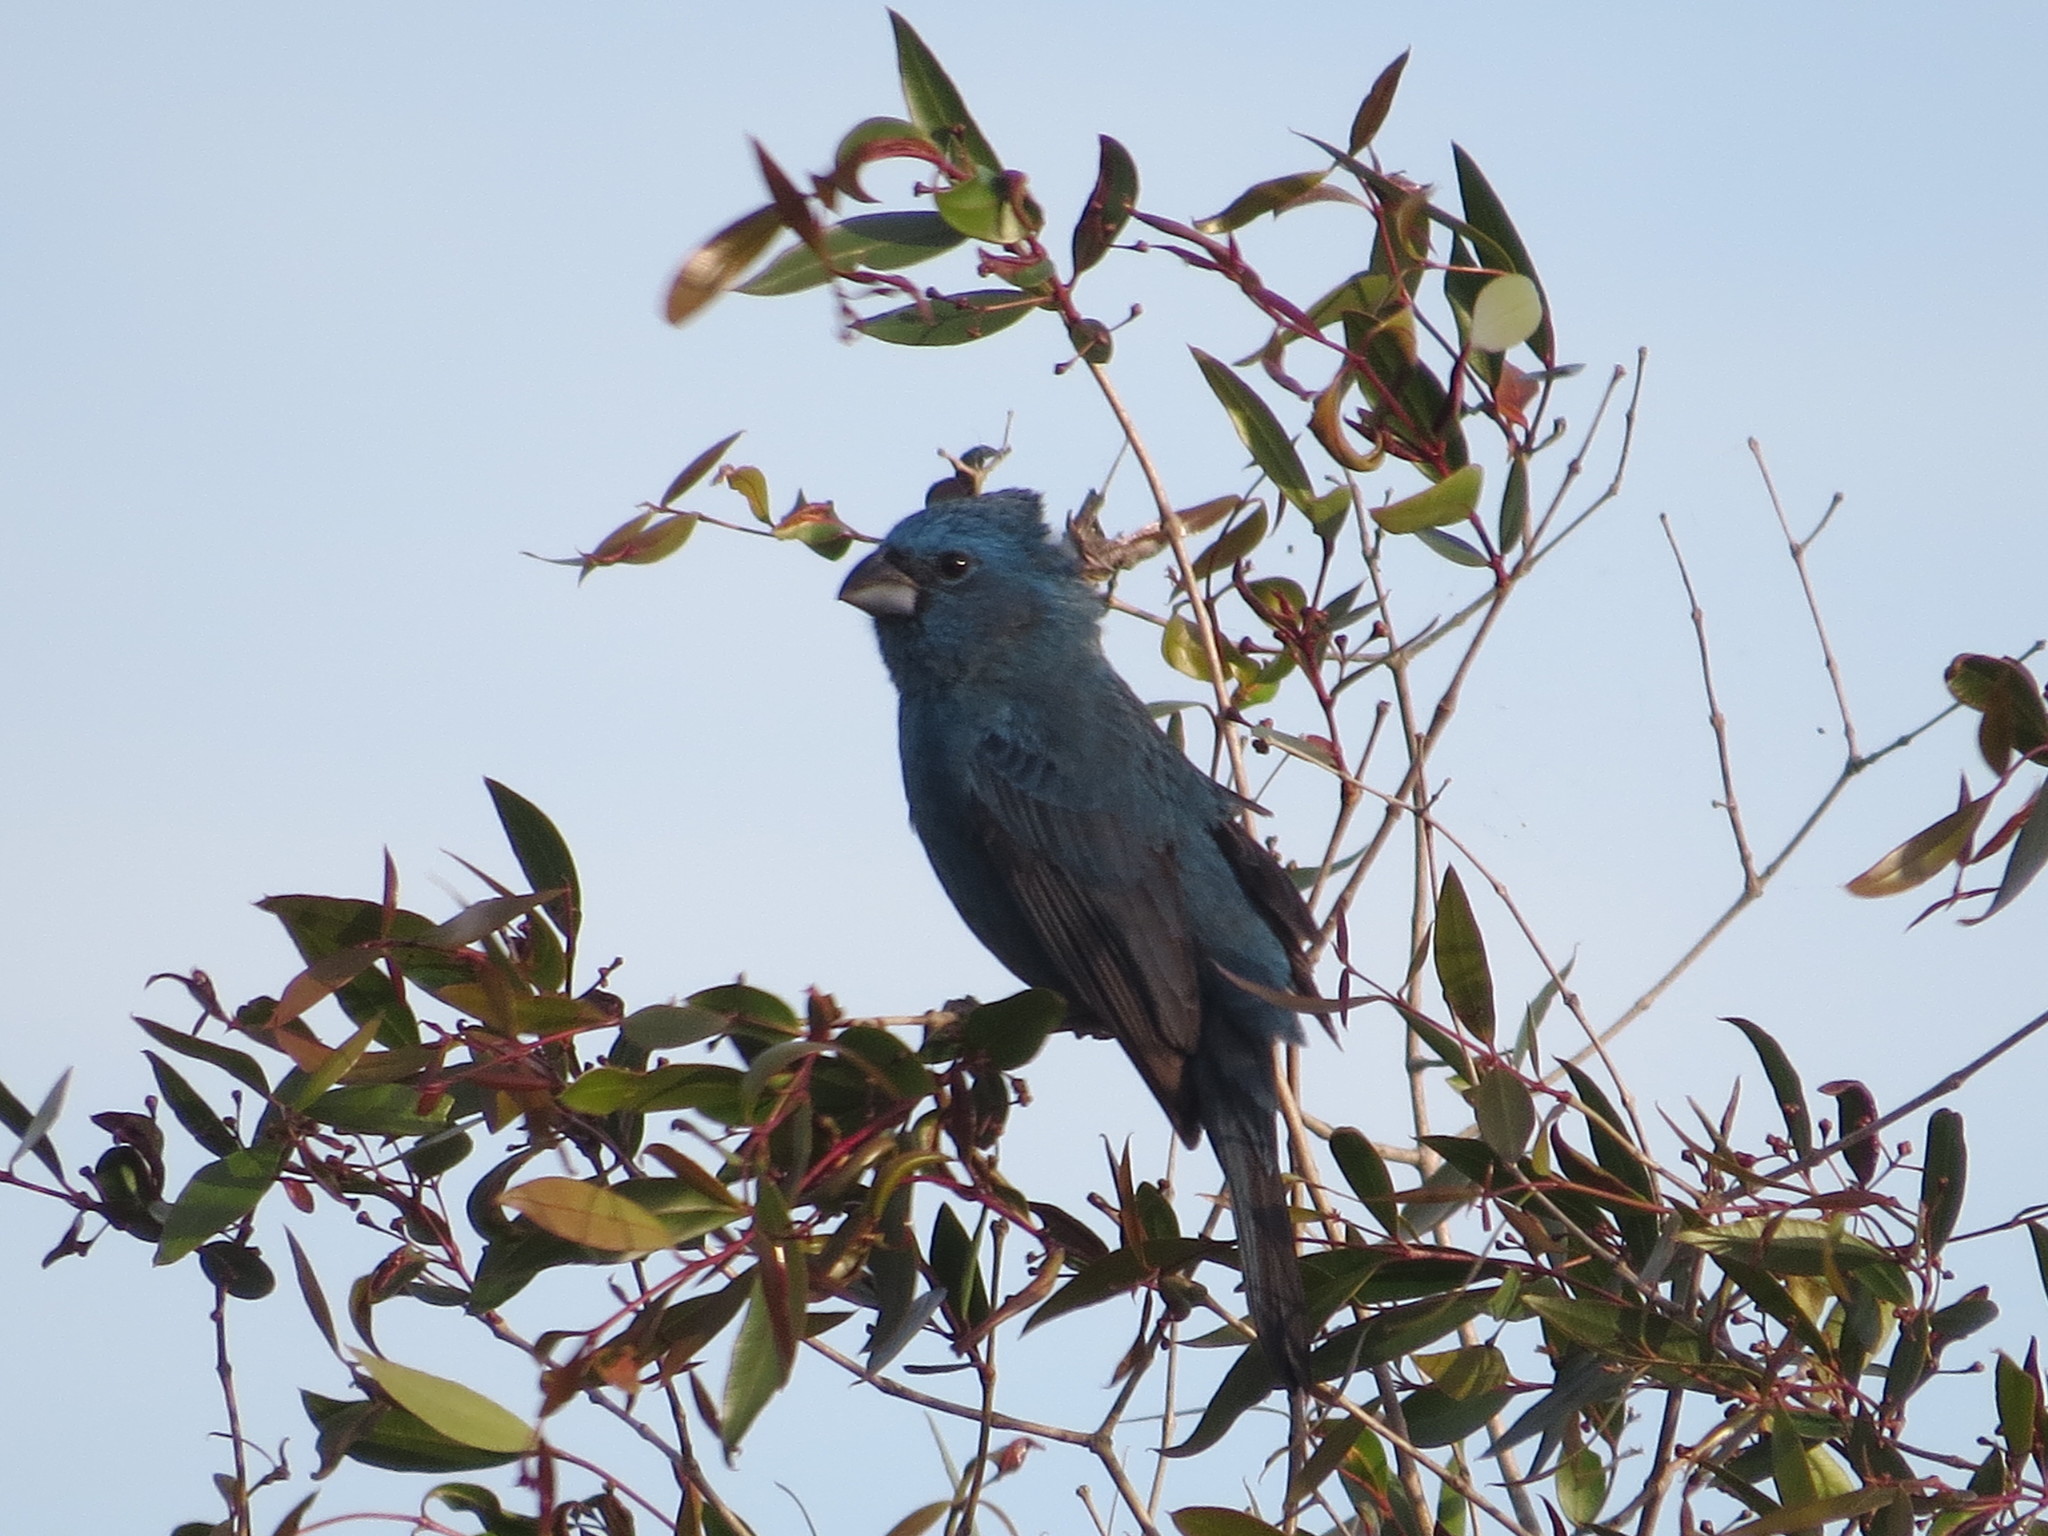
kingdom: Animalia
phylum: Chordata
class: Aves
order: Passeriformes
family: Cardinalidae
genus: Cyanoloxia
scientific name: Cyanoloxia glaucocaerulea
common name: Glaucous-blue grosbeak
